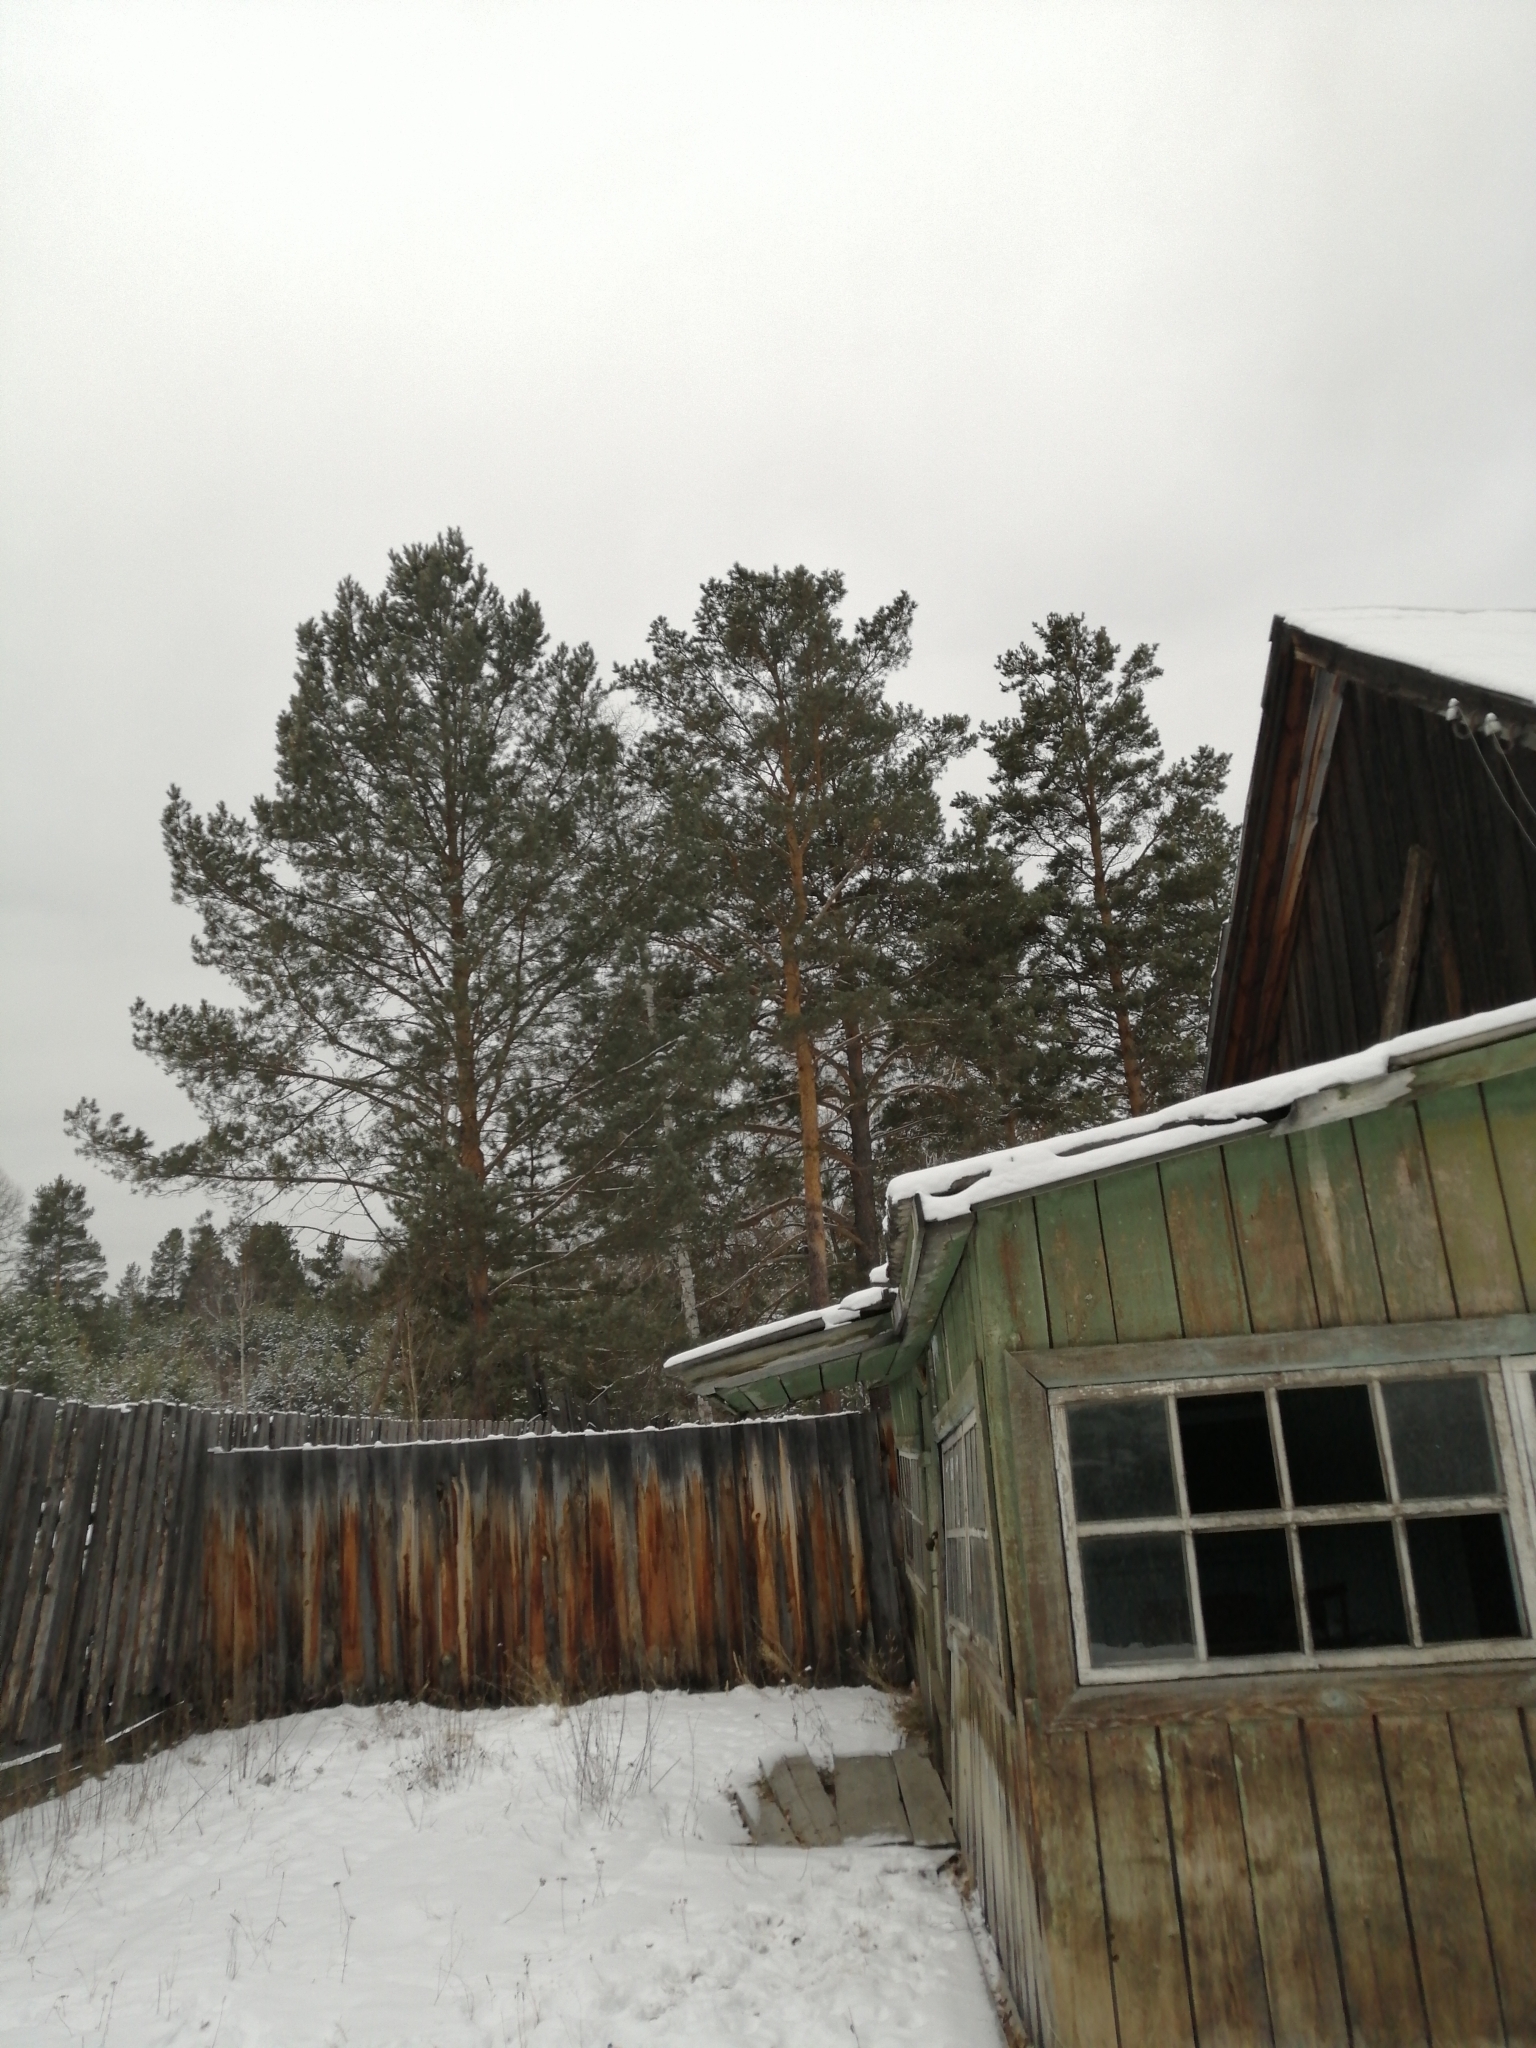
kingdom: Plantae
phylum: Tracheophyta
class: Pinopsida
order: Pinales
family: Pinaceae
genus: Pinus
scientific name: Pinus sylvestris
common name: Scots pine
